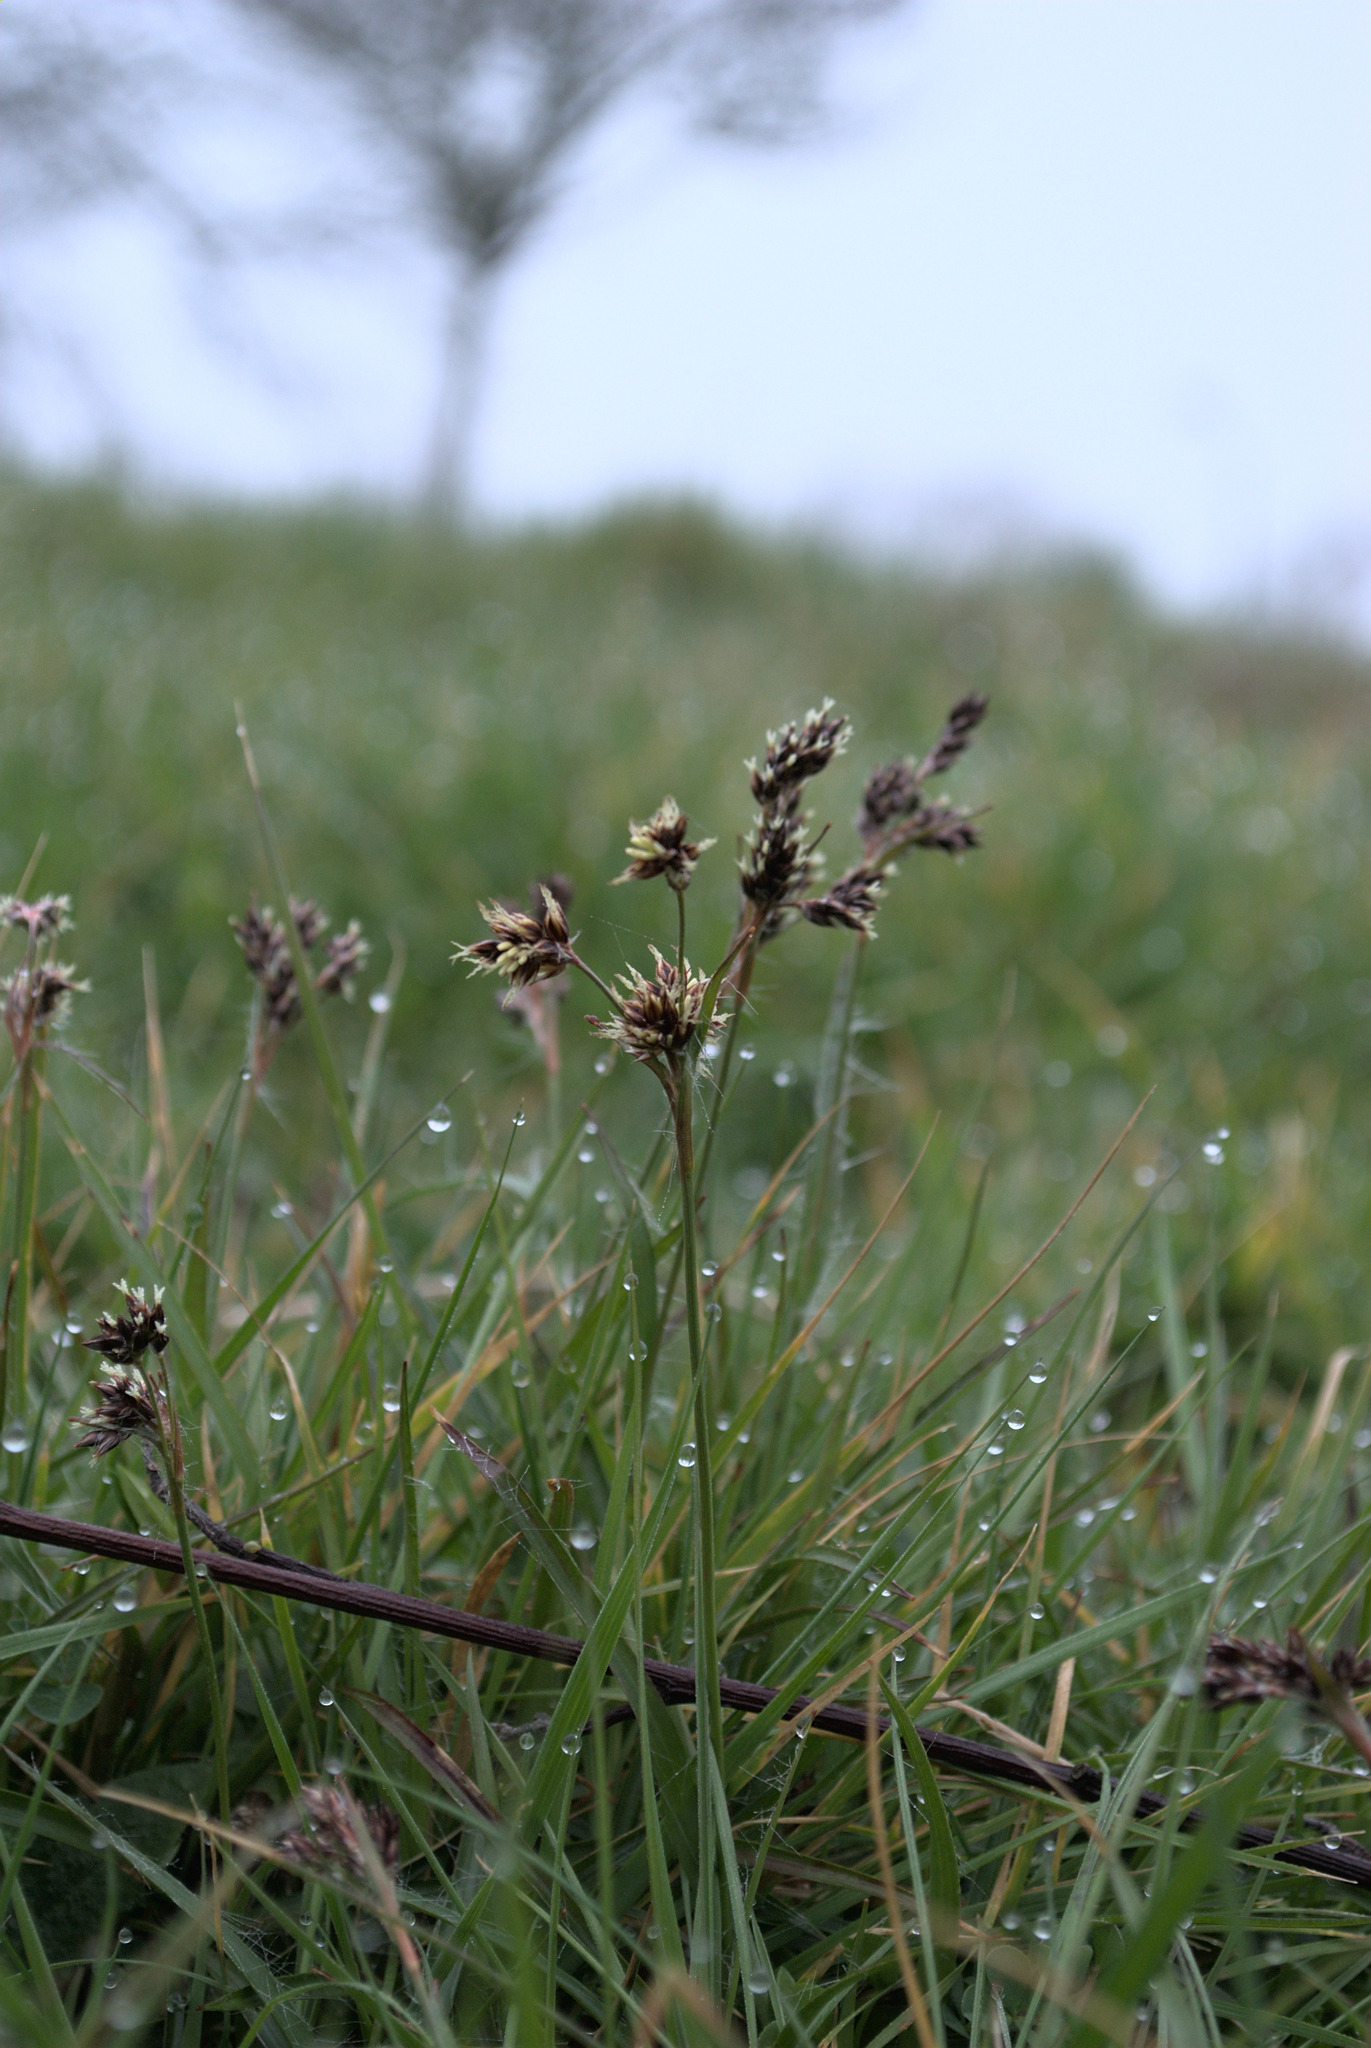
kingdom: Plantae
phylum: Tracheophyta
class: Liliopsida
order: Poales
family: Juncaceae
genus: Luzula
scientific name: Luzula campestris
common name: Field wood-rush
